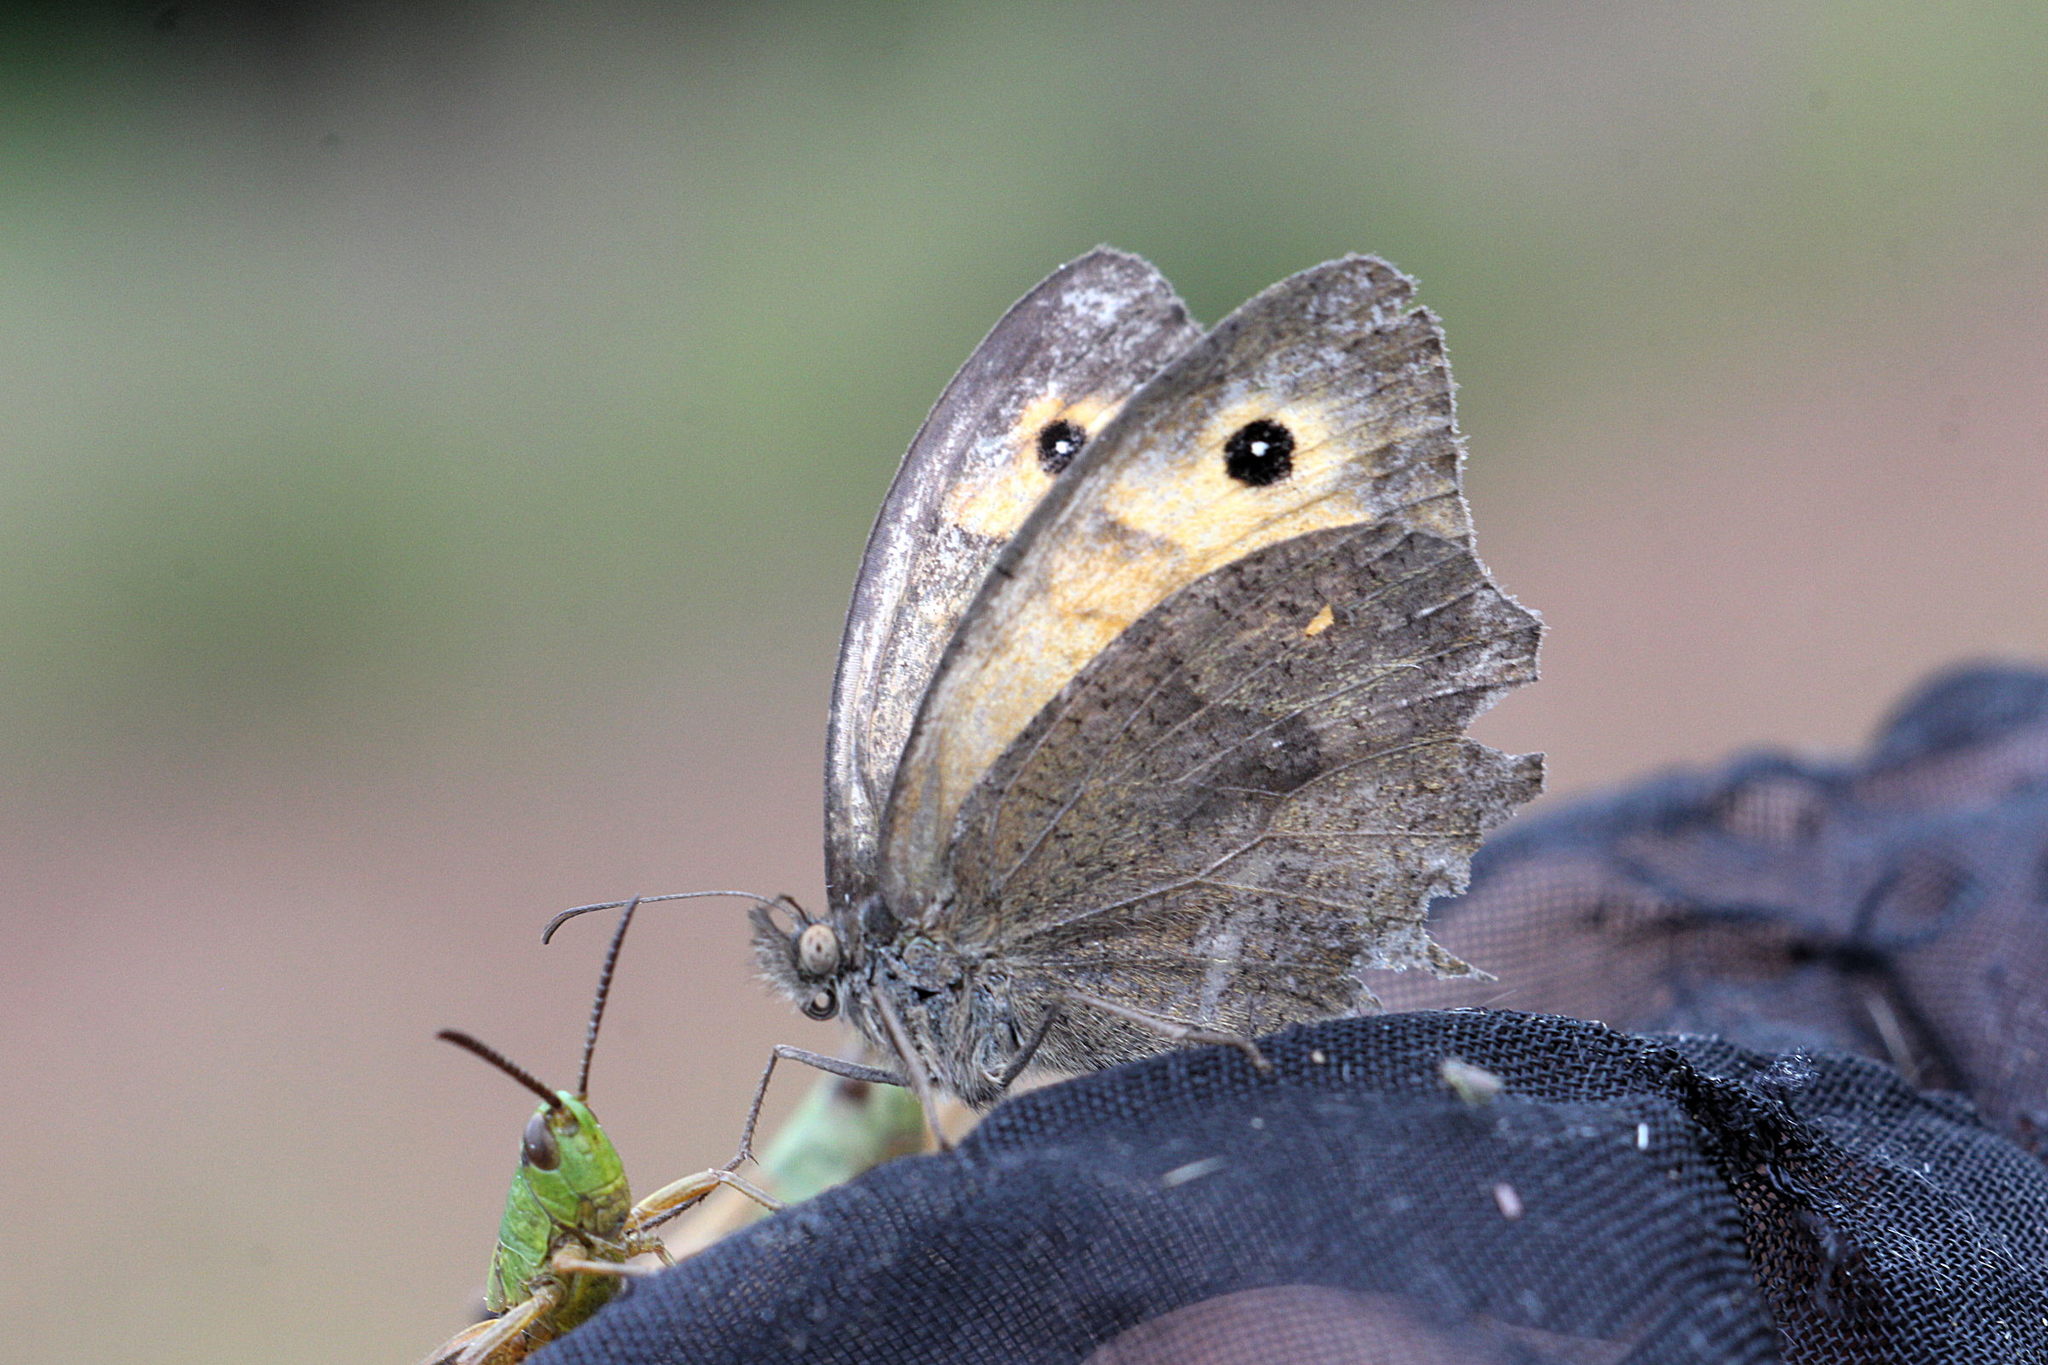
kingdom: Animalia
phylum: Arthropoda
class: Insecta
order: Lepidoptera
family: Nymphalidae
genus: Maniola
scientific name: Maniola jurtina
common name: Meadow brown
